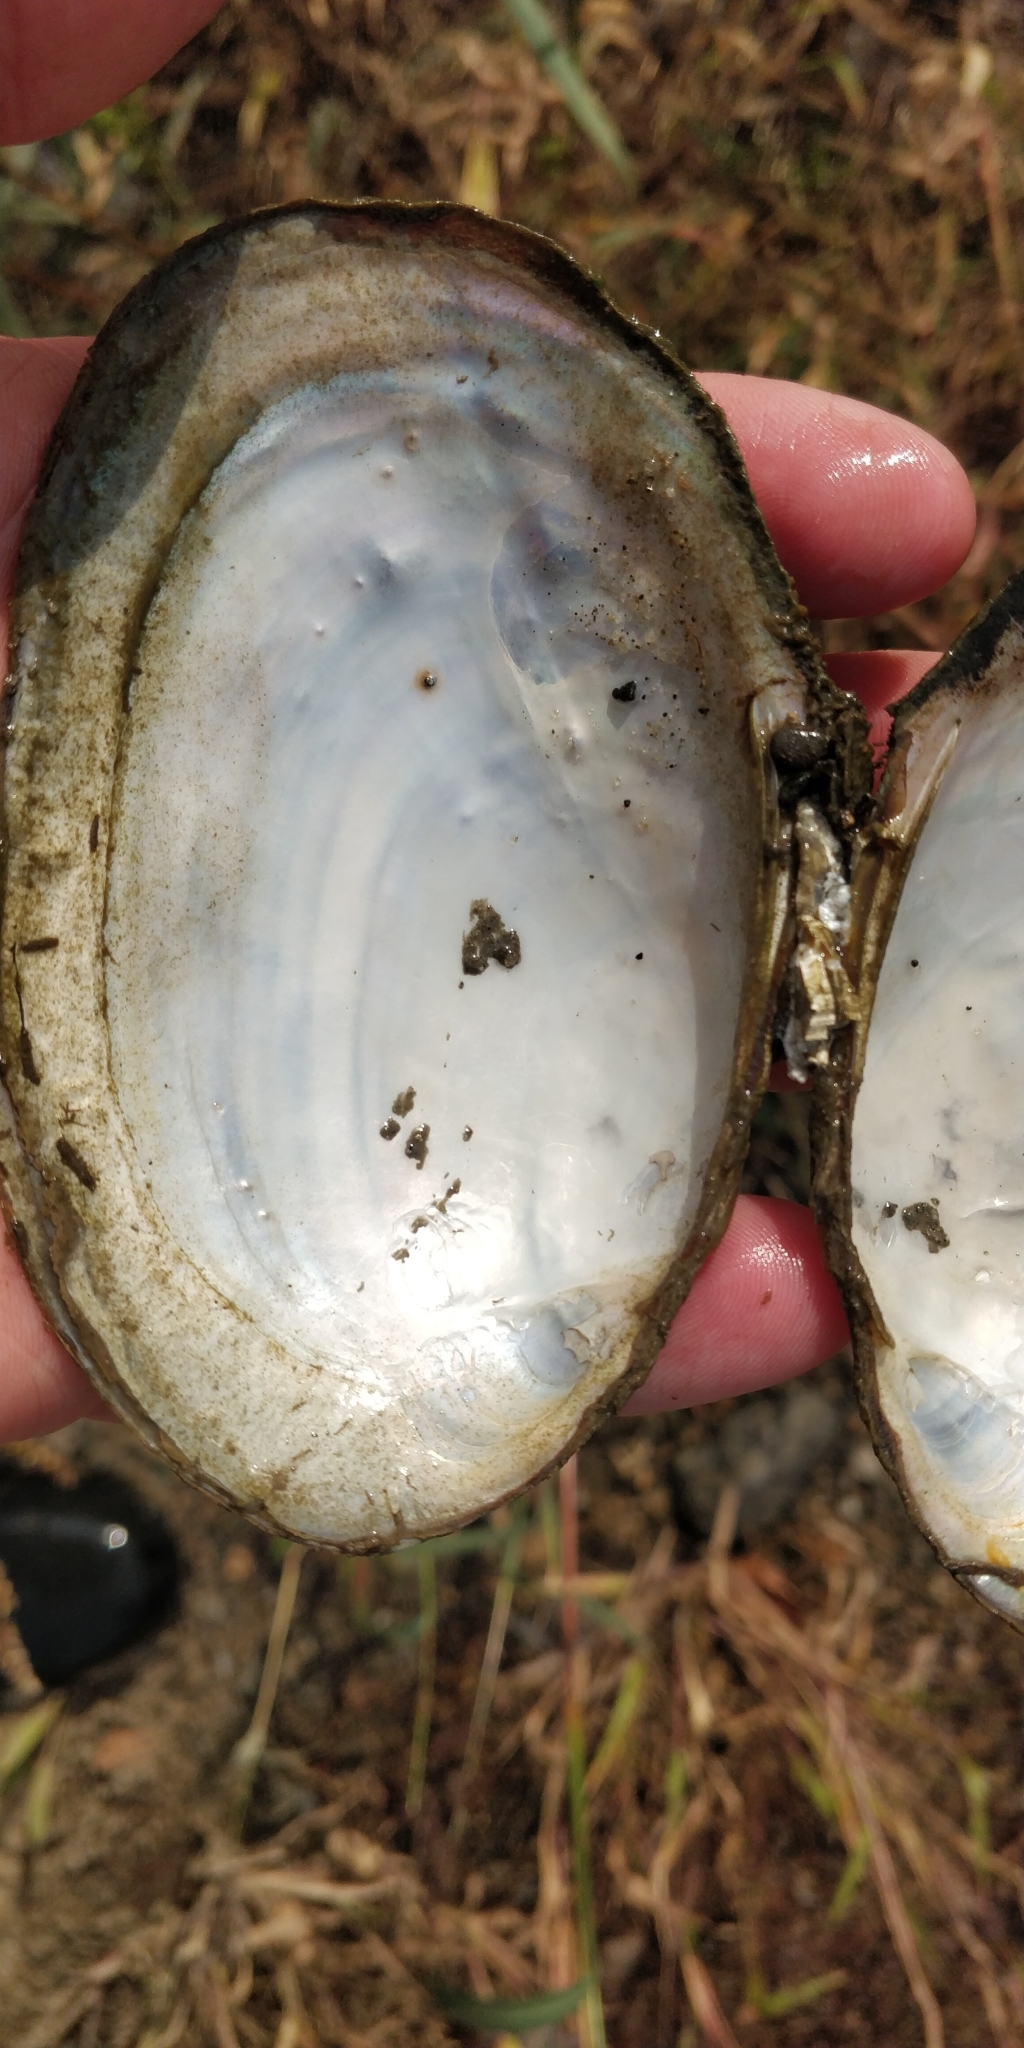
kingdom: Animalia
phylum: Mollusca
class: Bivalvia
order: Unionida
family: Unionidae
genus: Potamilus
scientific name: Potamilus fragilis
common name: Fragile papershell
